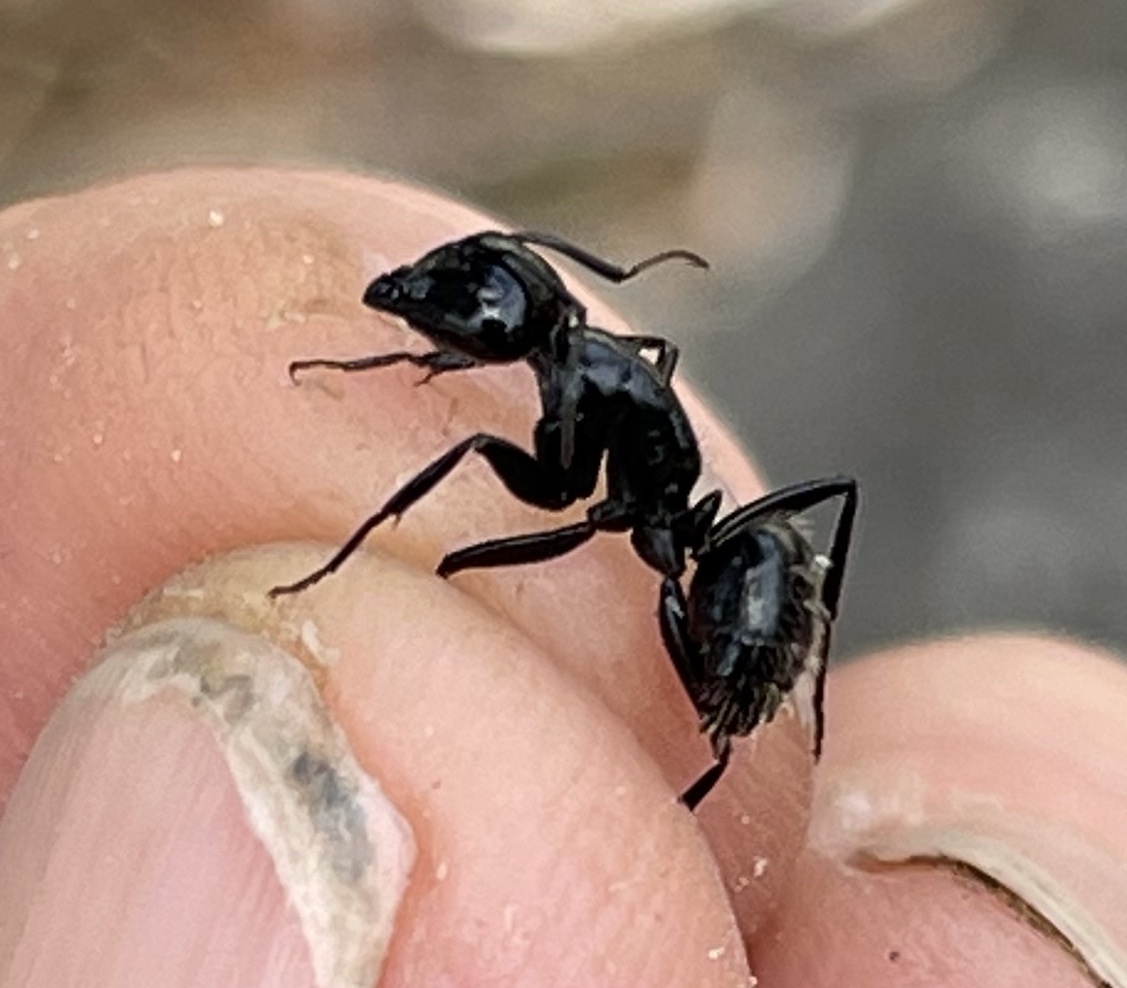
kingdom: Animalia
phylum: Arthropoda
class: Insecta
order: Hymenoptera
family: Formicidae
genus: Camponotus
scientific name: Camponotus
